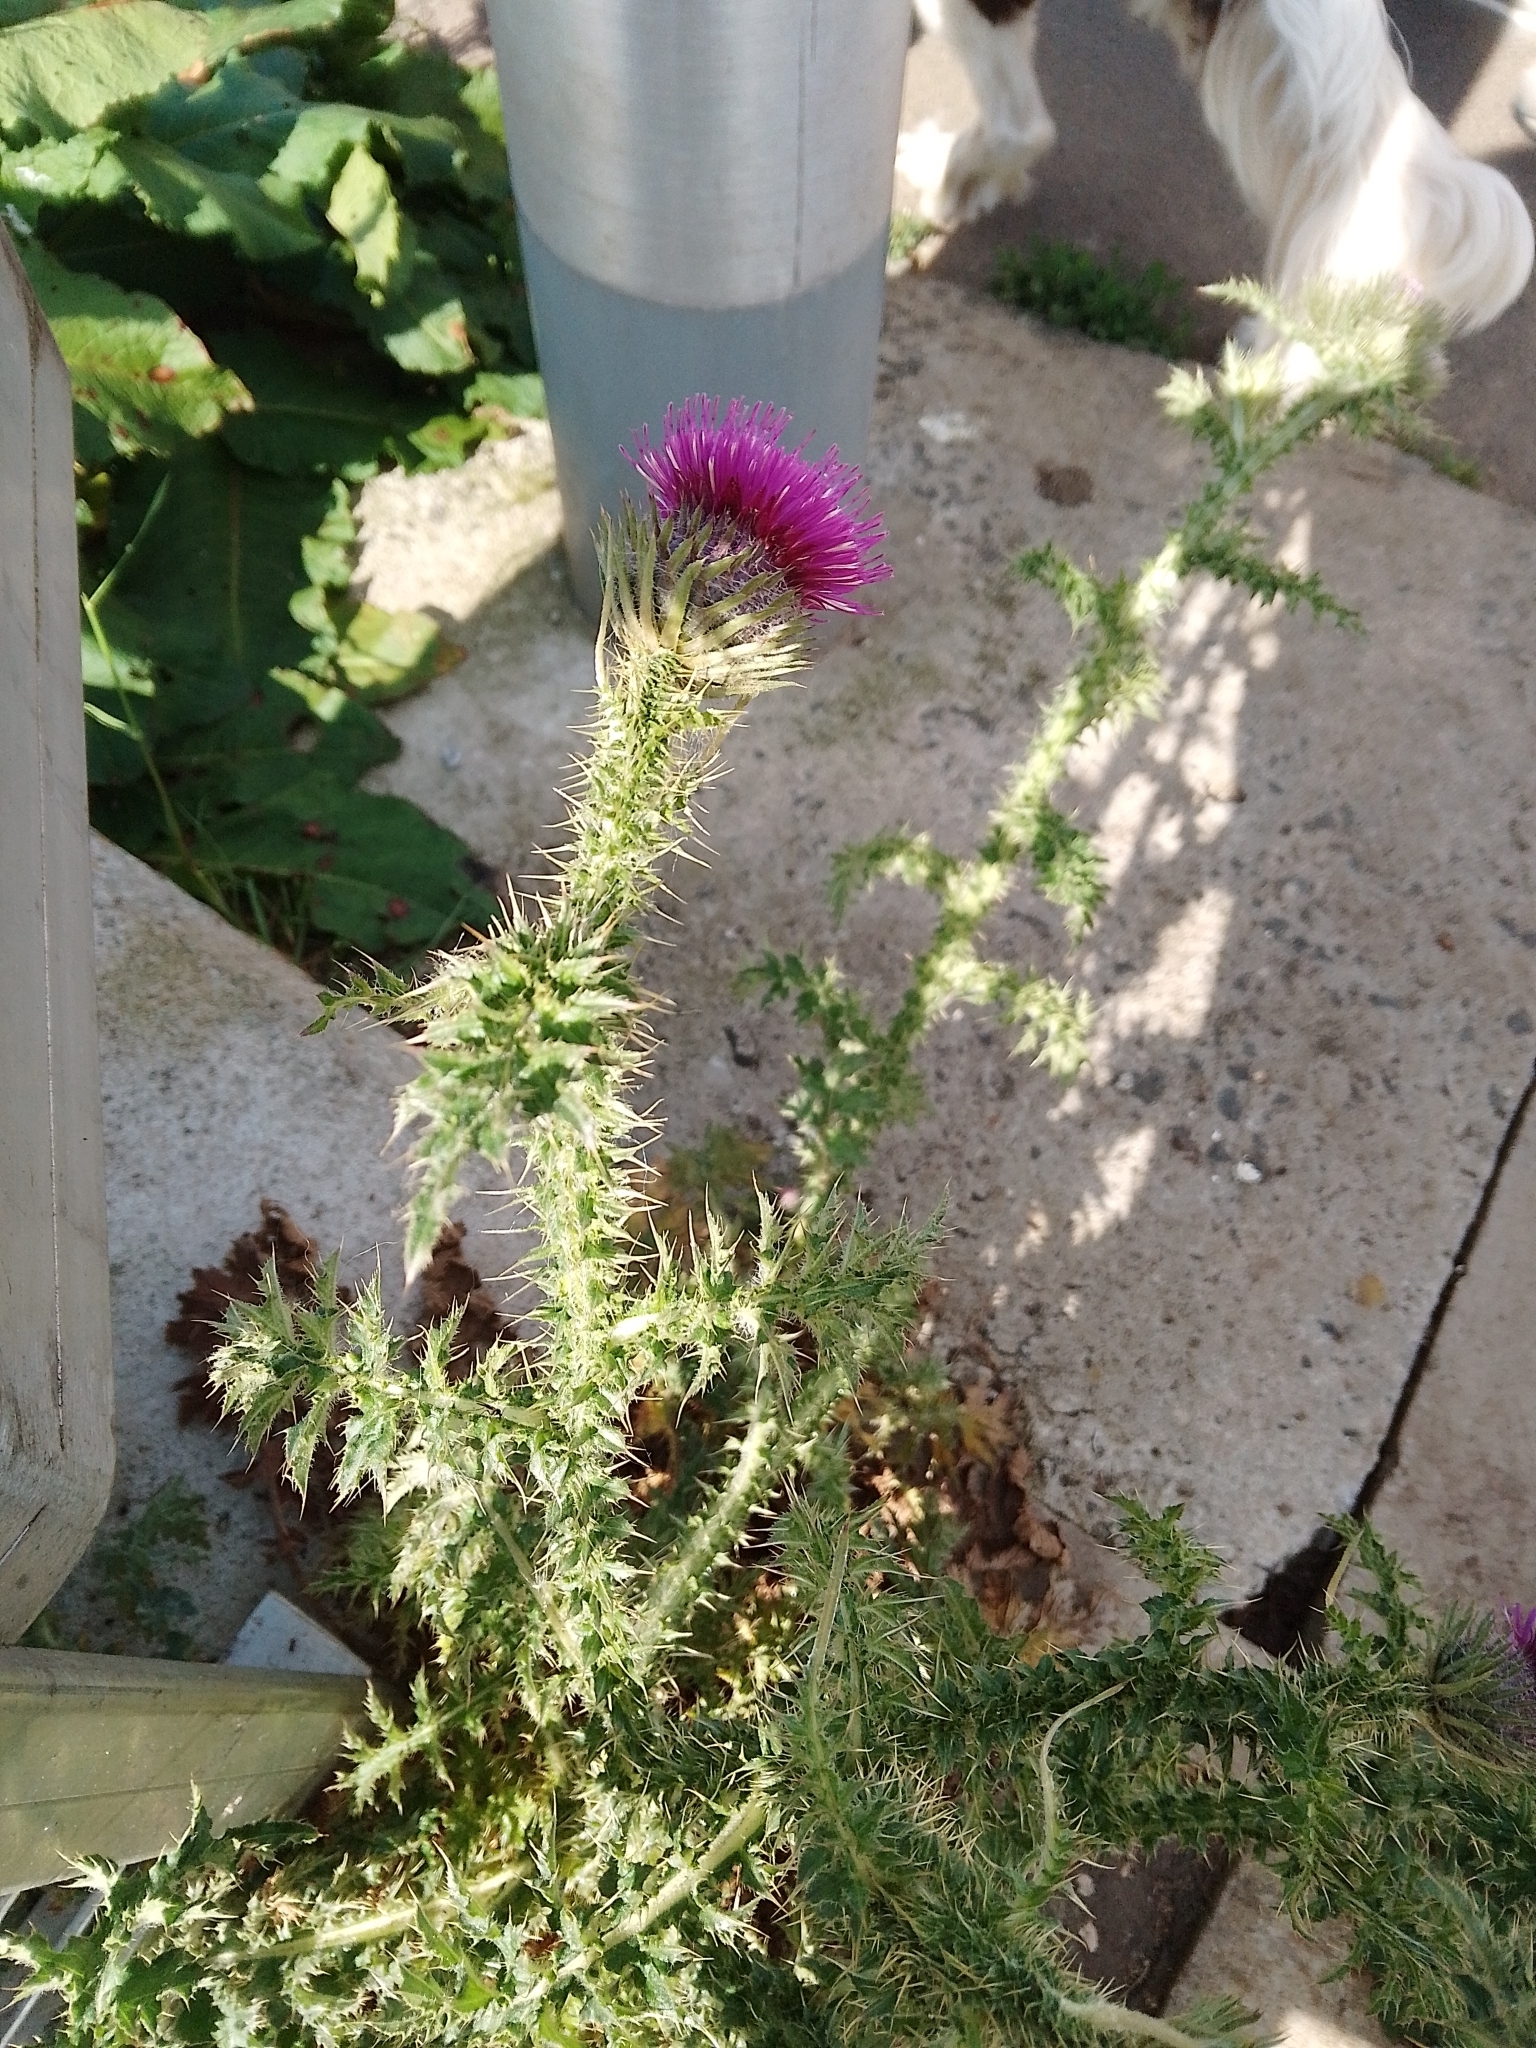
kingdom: Plantae
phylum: Tracheophyta
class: Magnoliopsida
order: Asterales
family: Asteraceae
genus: Carduus
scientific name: Carduus crispus
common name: Welted thistle
